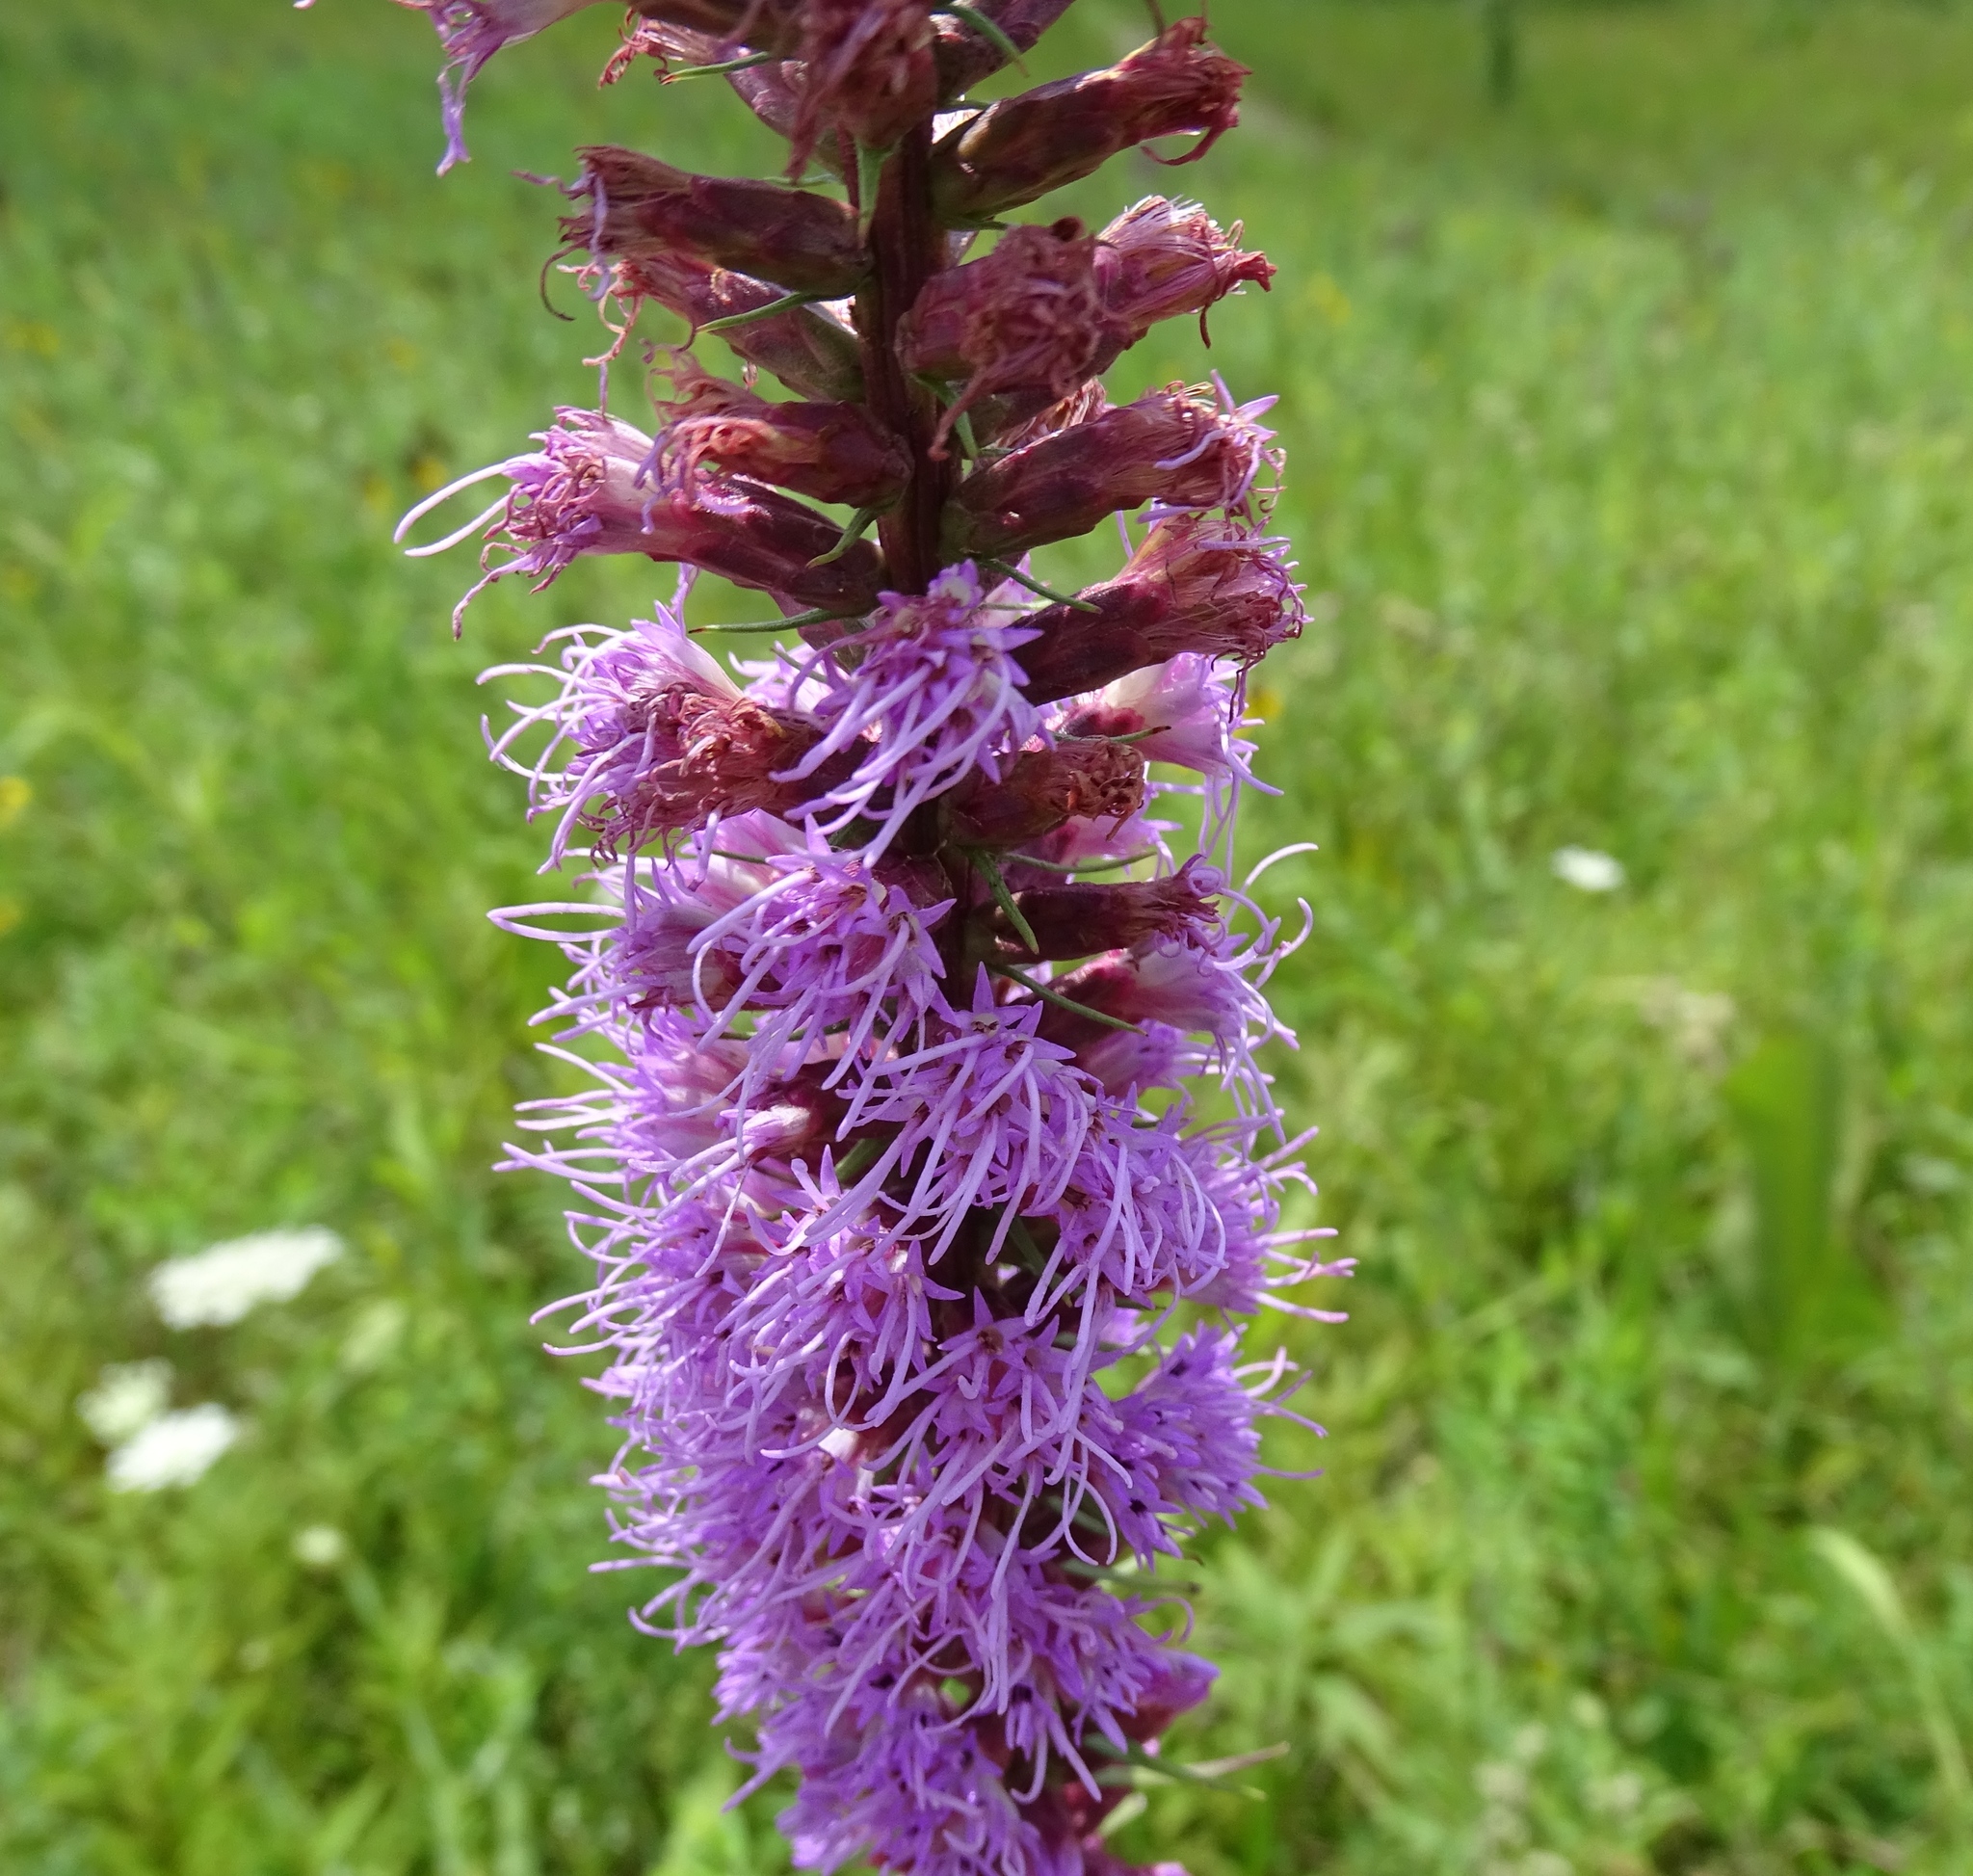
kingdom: Plantae
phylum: Tracheophyta
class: Magnoliopsida
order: Asterales
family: Asteraceae
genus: Liatris
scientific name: Liatris spicata
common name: Florist gayfeather
